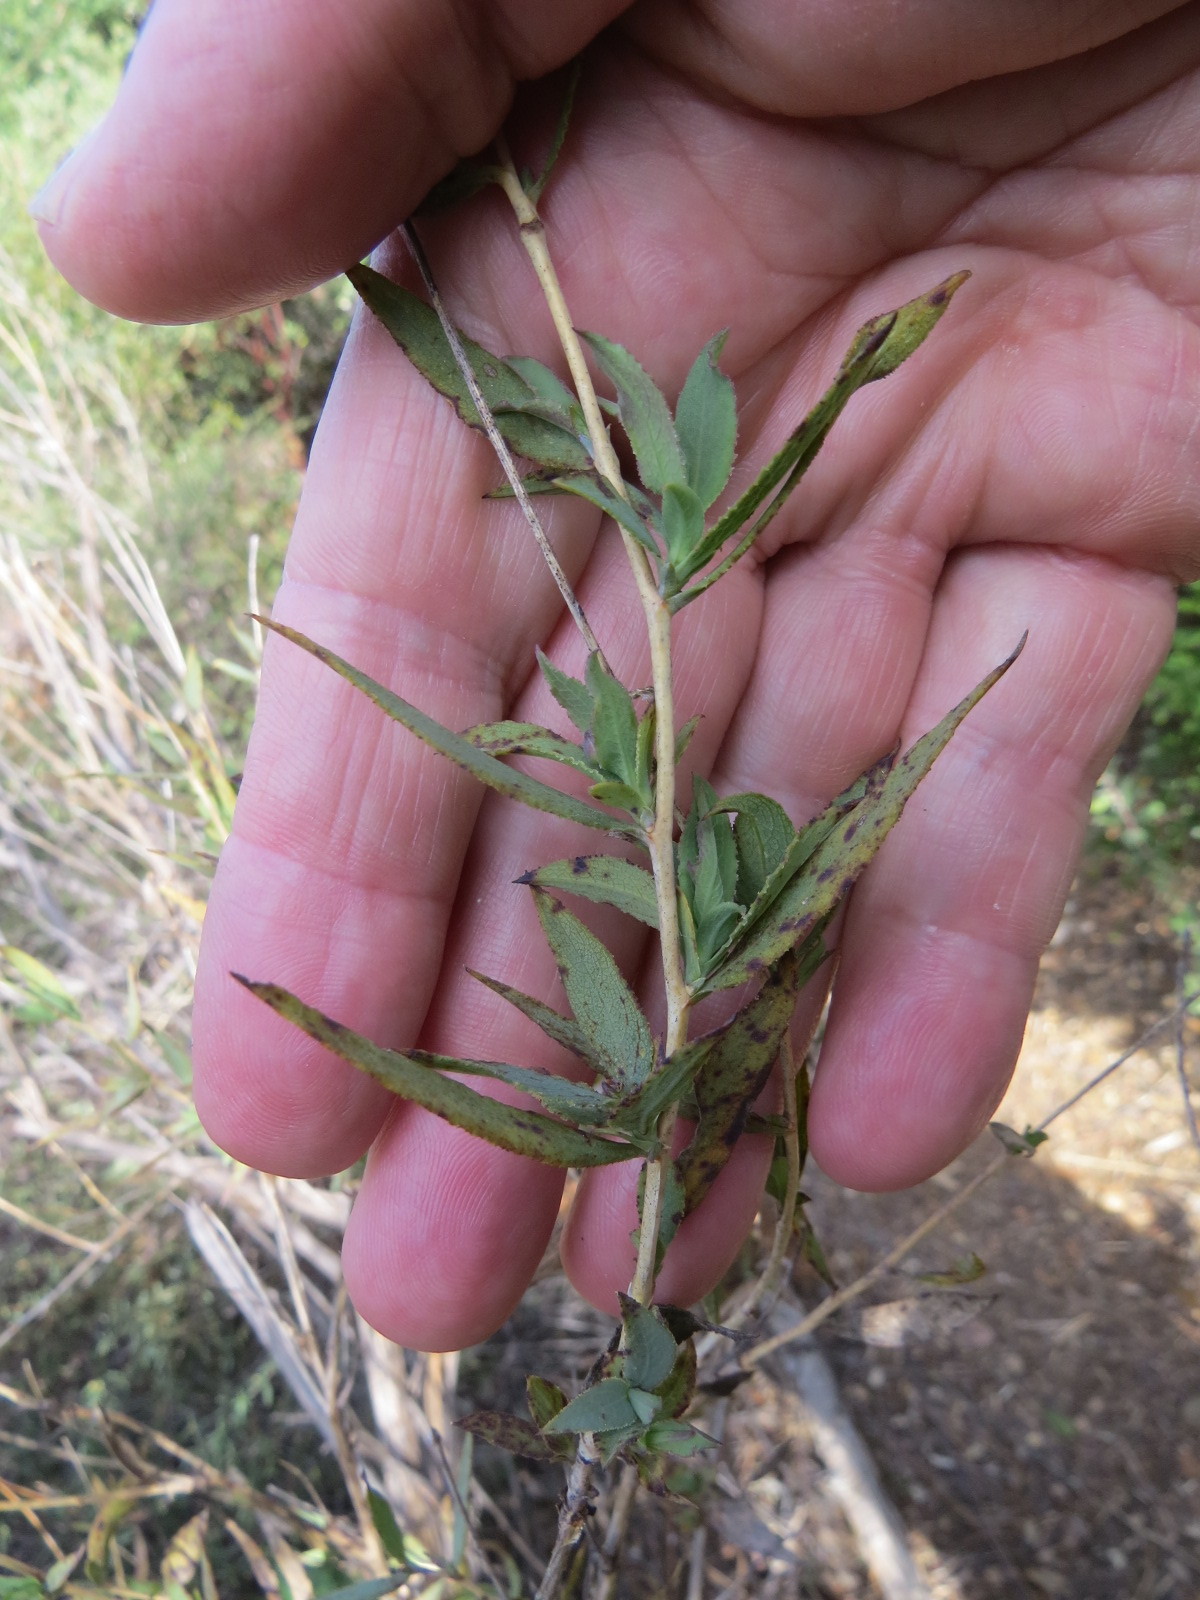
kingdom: Plantae
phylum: Tracheophyta
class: Magnoliopsida
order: Ranunculales
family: Papaveraceae
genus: Dendromecon
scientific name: Dendromecon rigida
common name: Tree poppy
